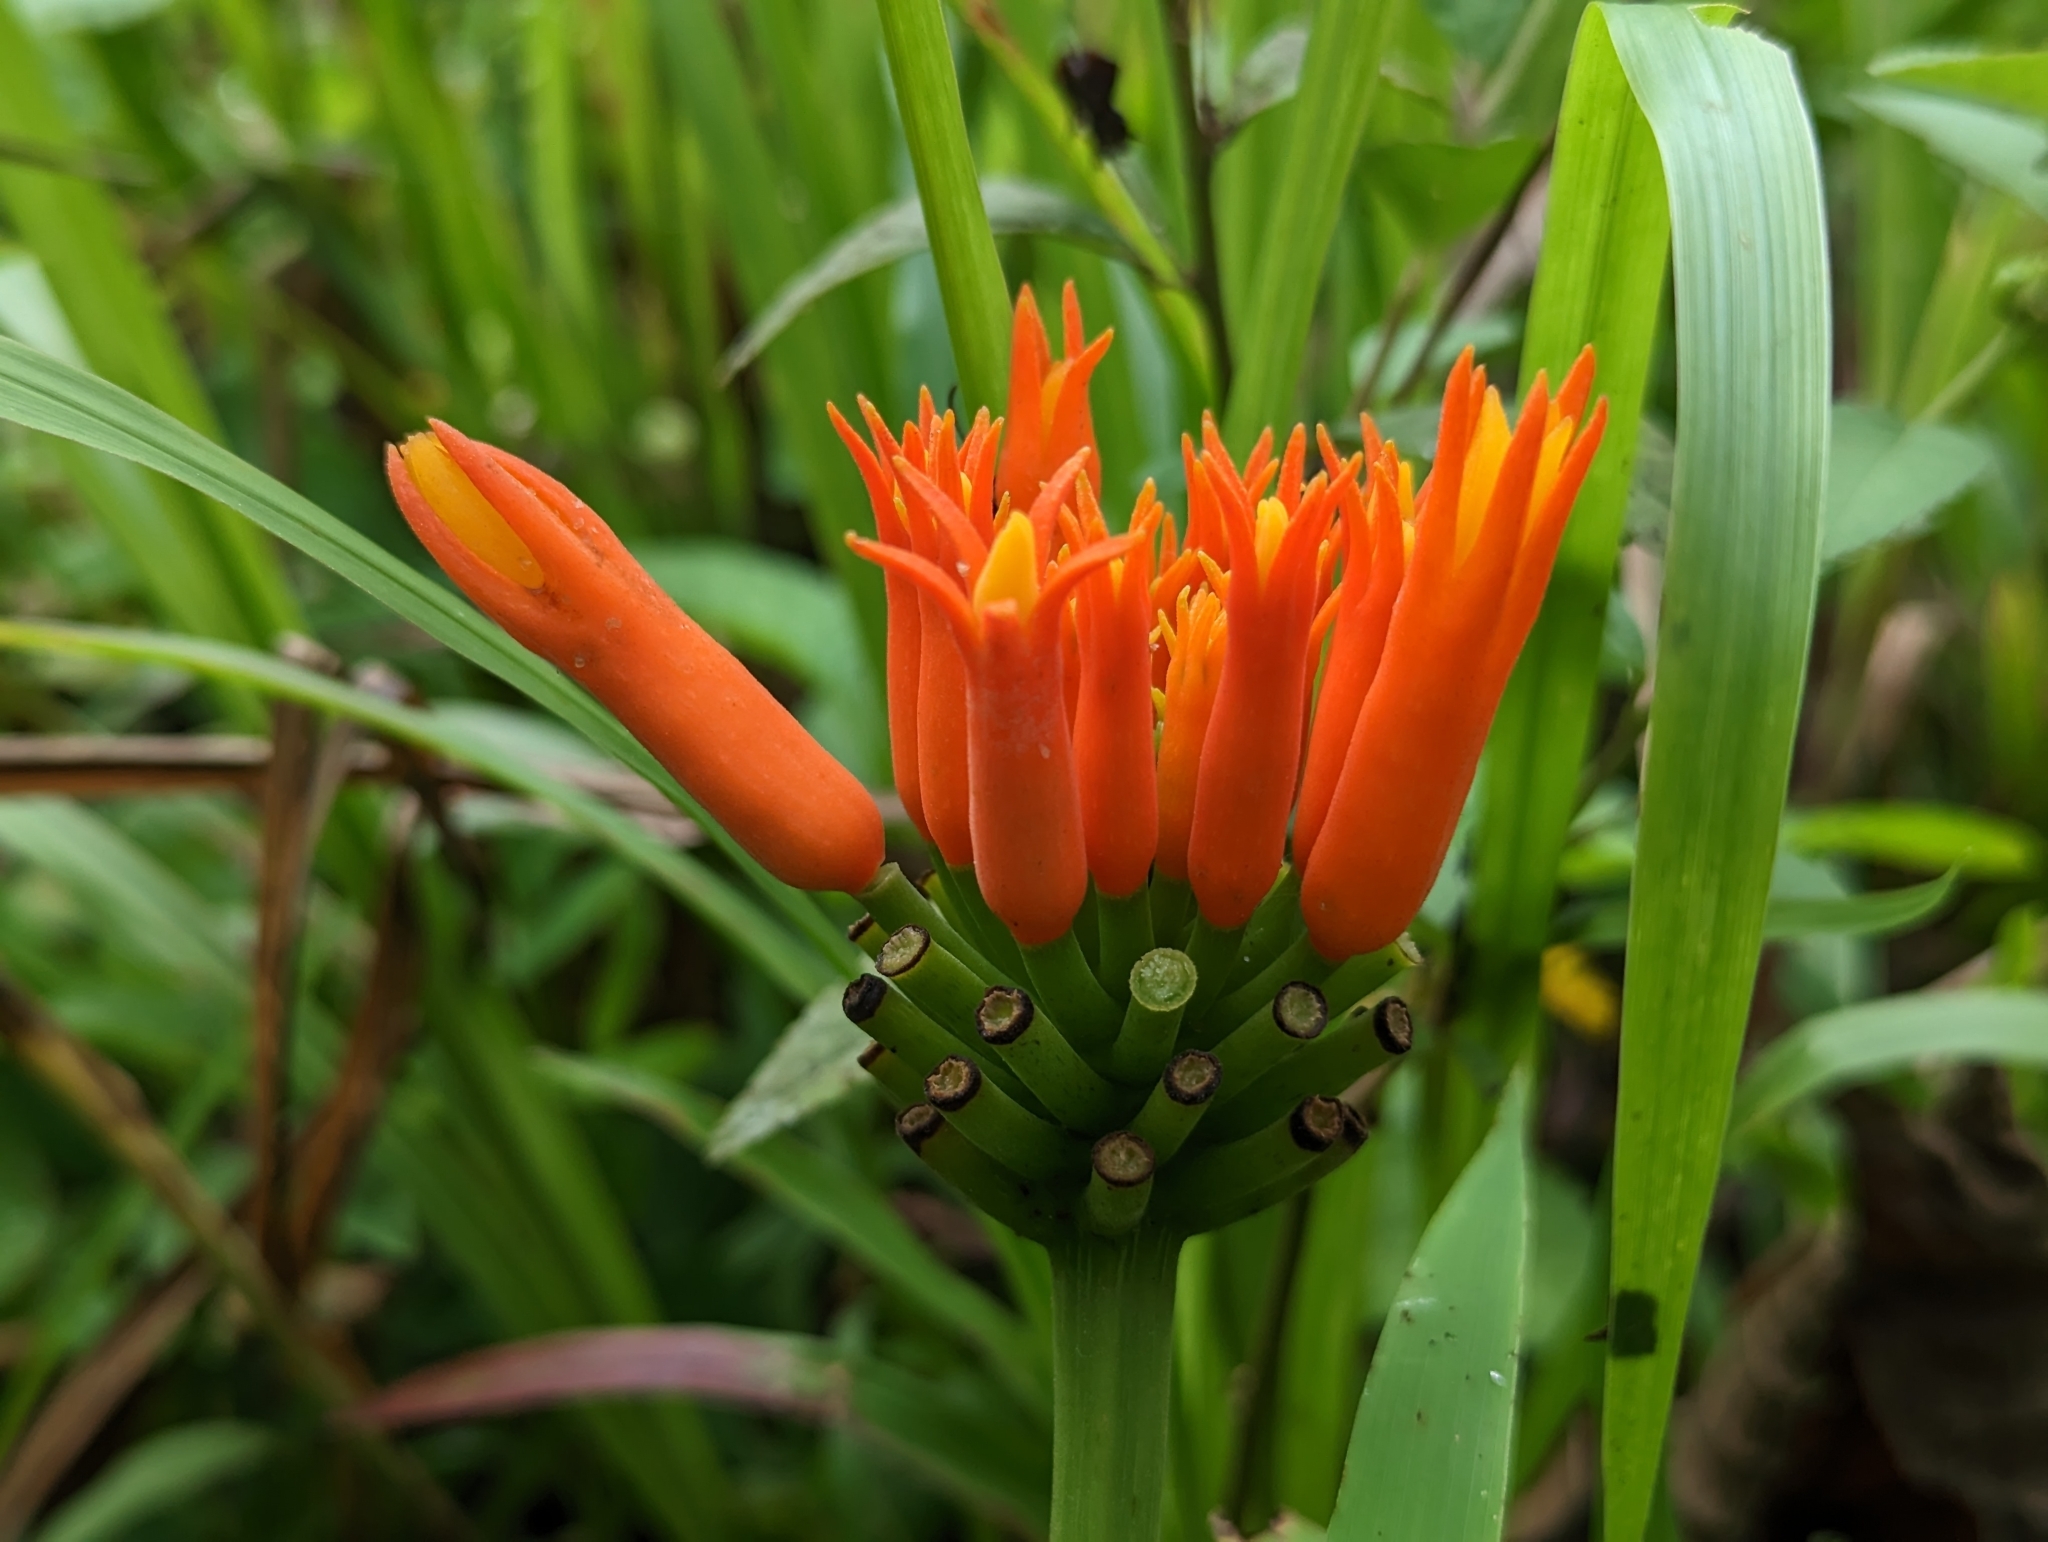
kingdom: Plantae
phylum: Tracheophyta
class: Magnoliopsida
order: Cucurbitales
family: Cucurbitaceae
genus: Gurania
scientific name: Gurania lobata
